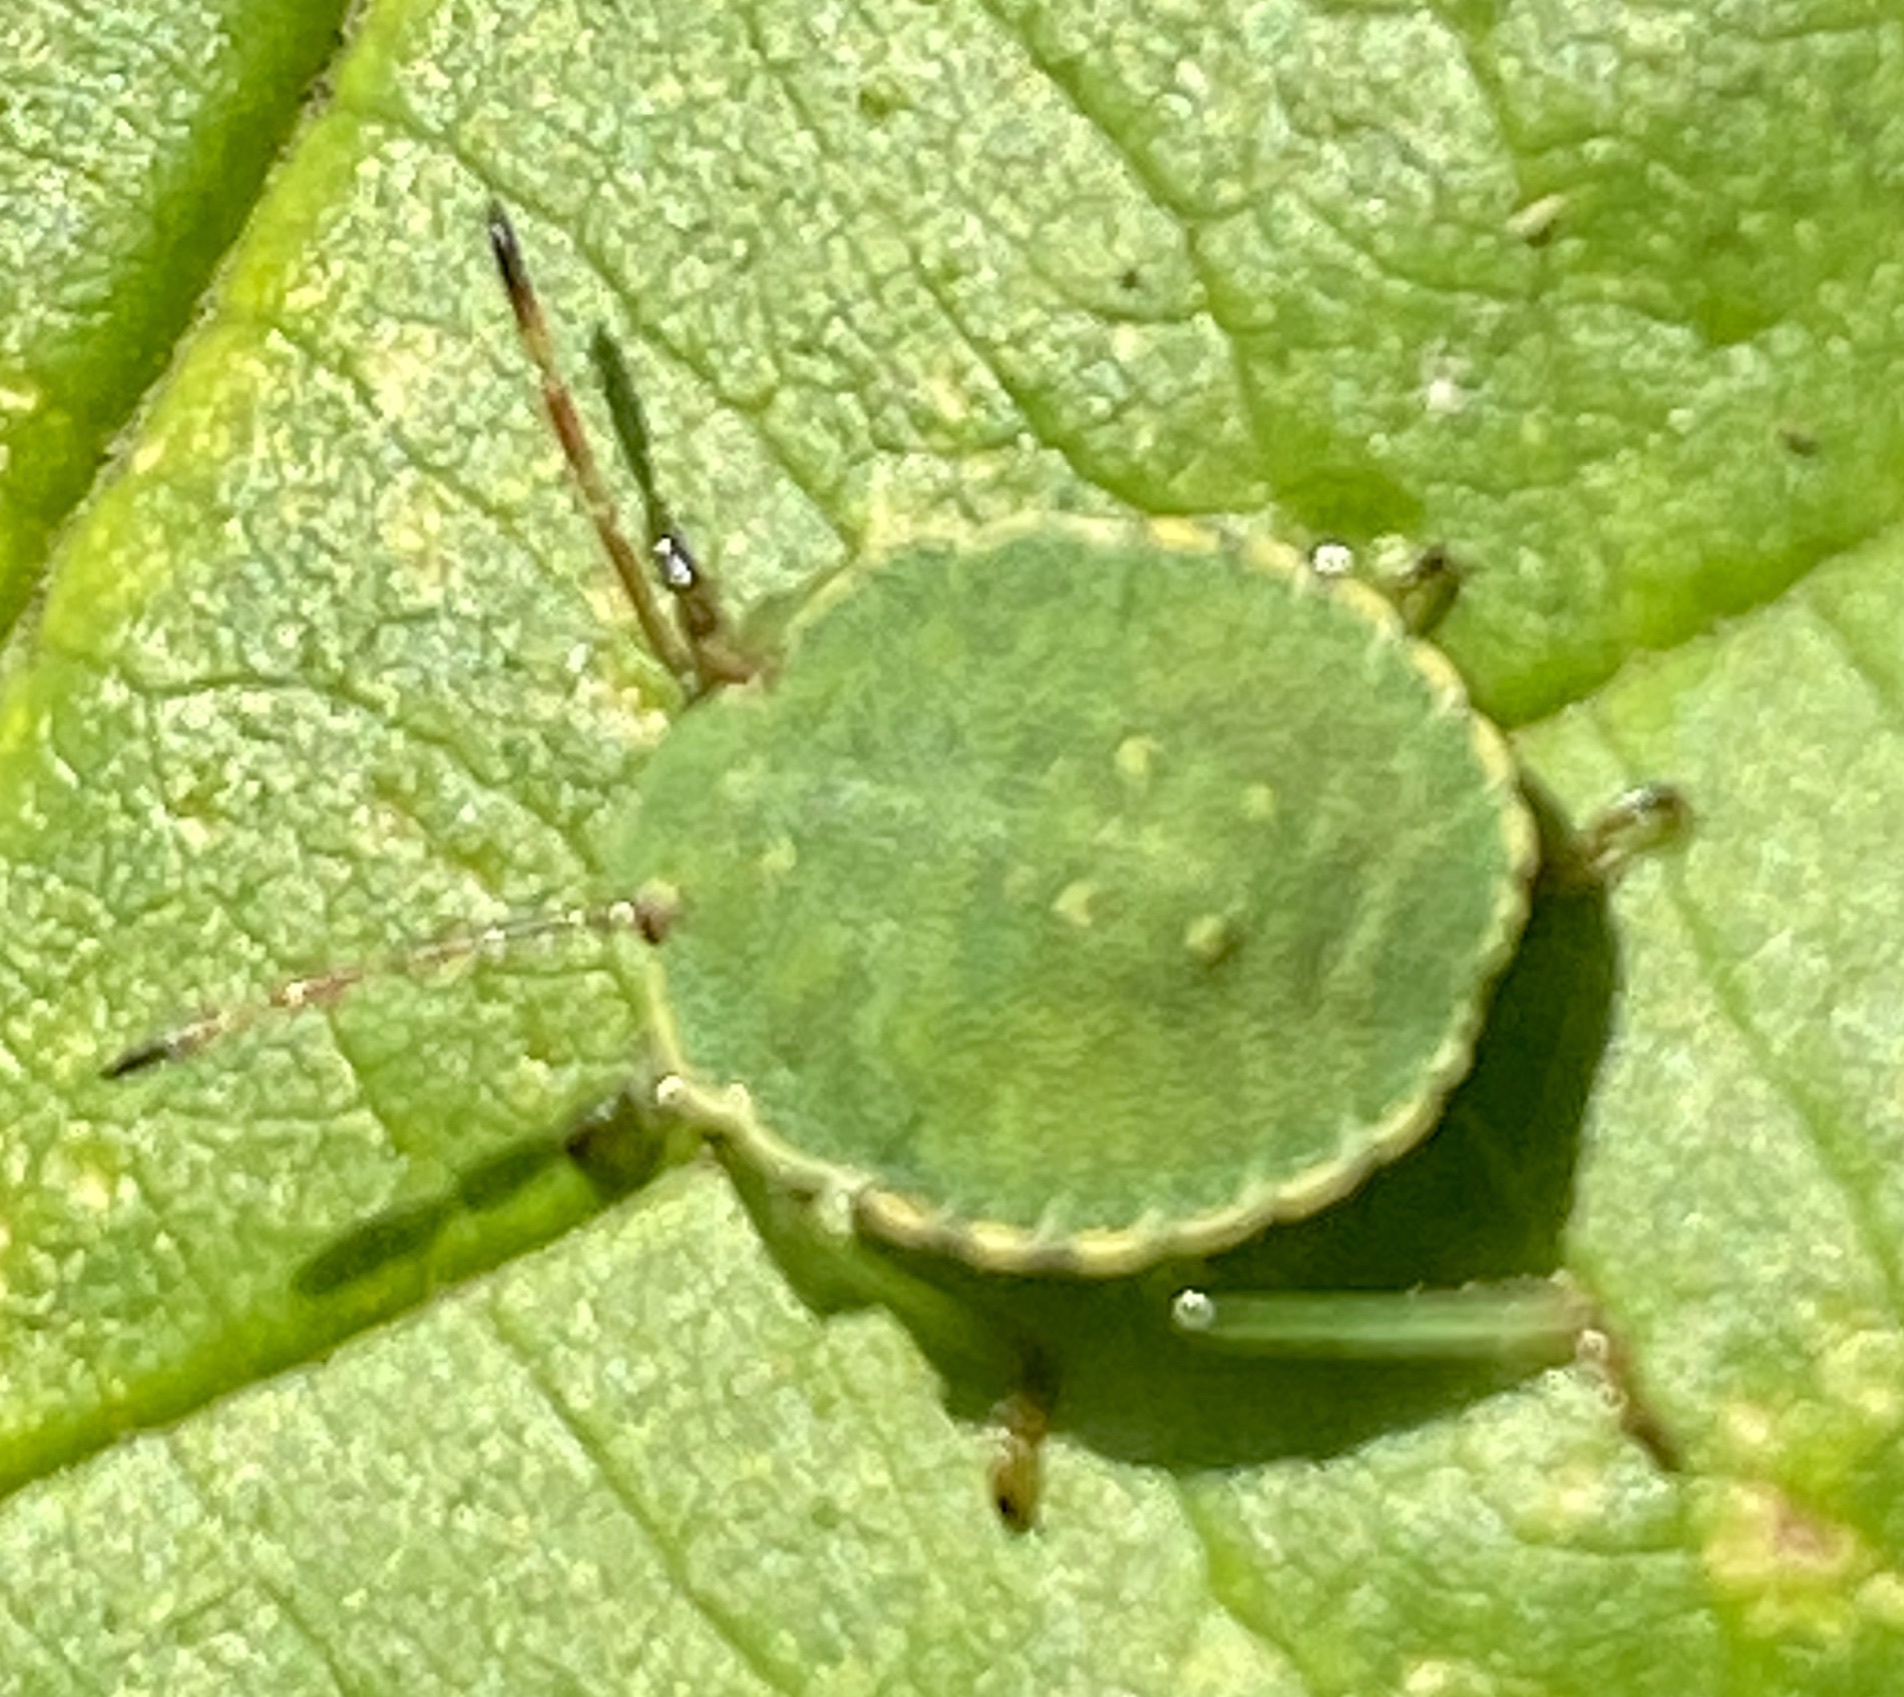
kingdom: Animalia
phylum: Arthropoda
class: Insecta
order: Hemiptera
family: Pentatomidae
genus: Palomena
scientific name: Palomena prasina
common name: Green shieldbug
